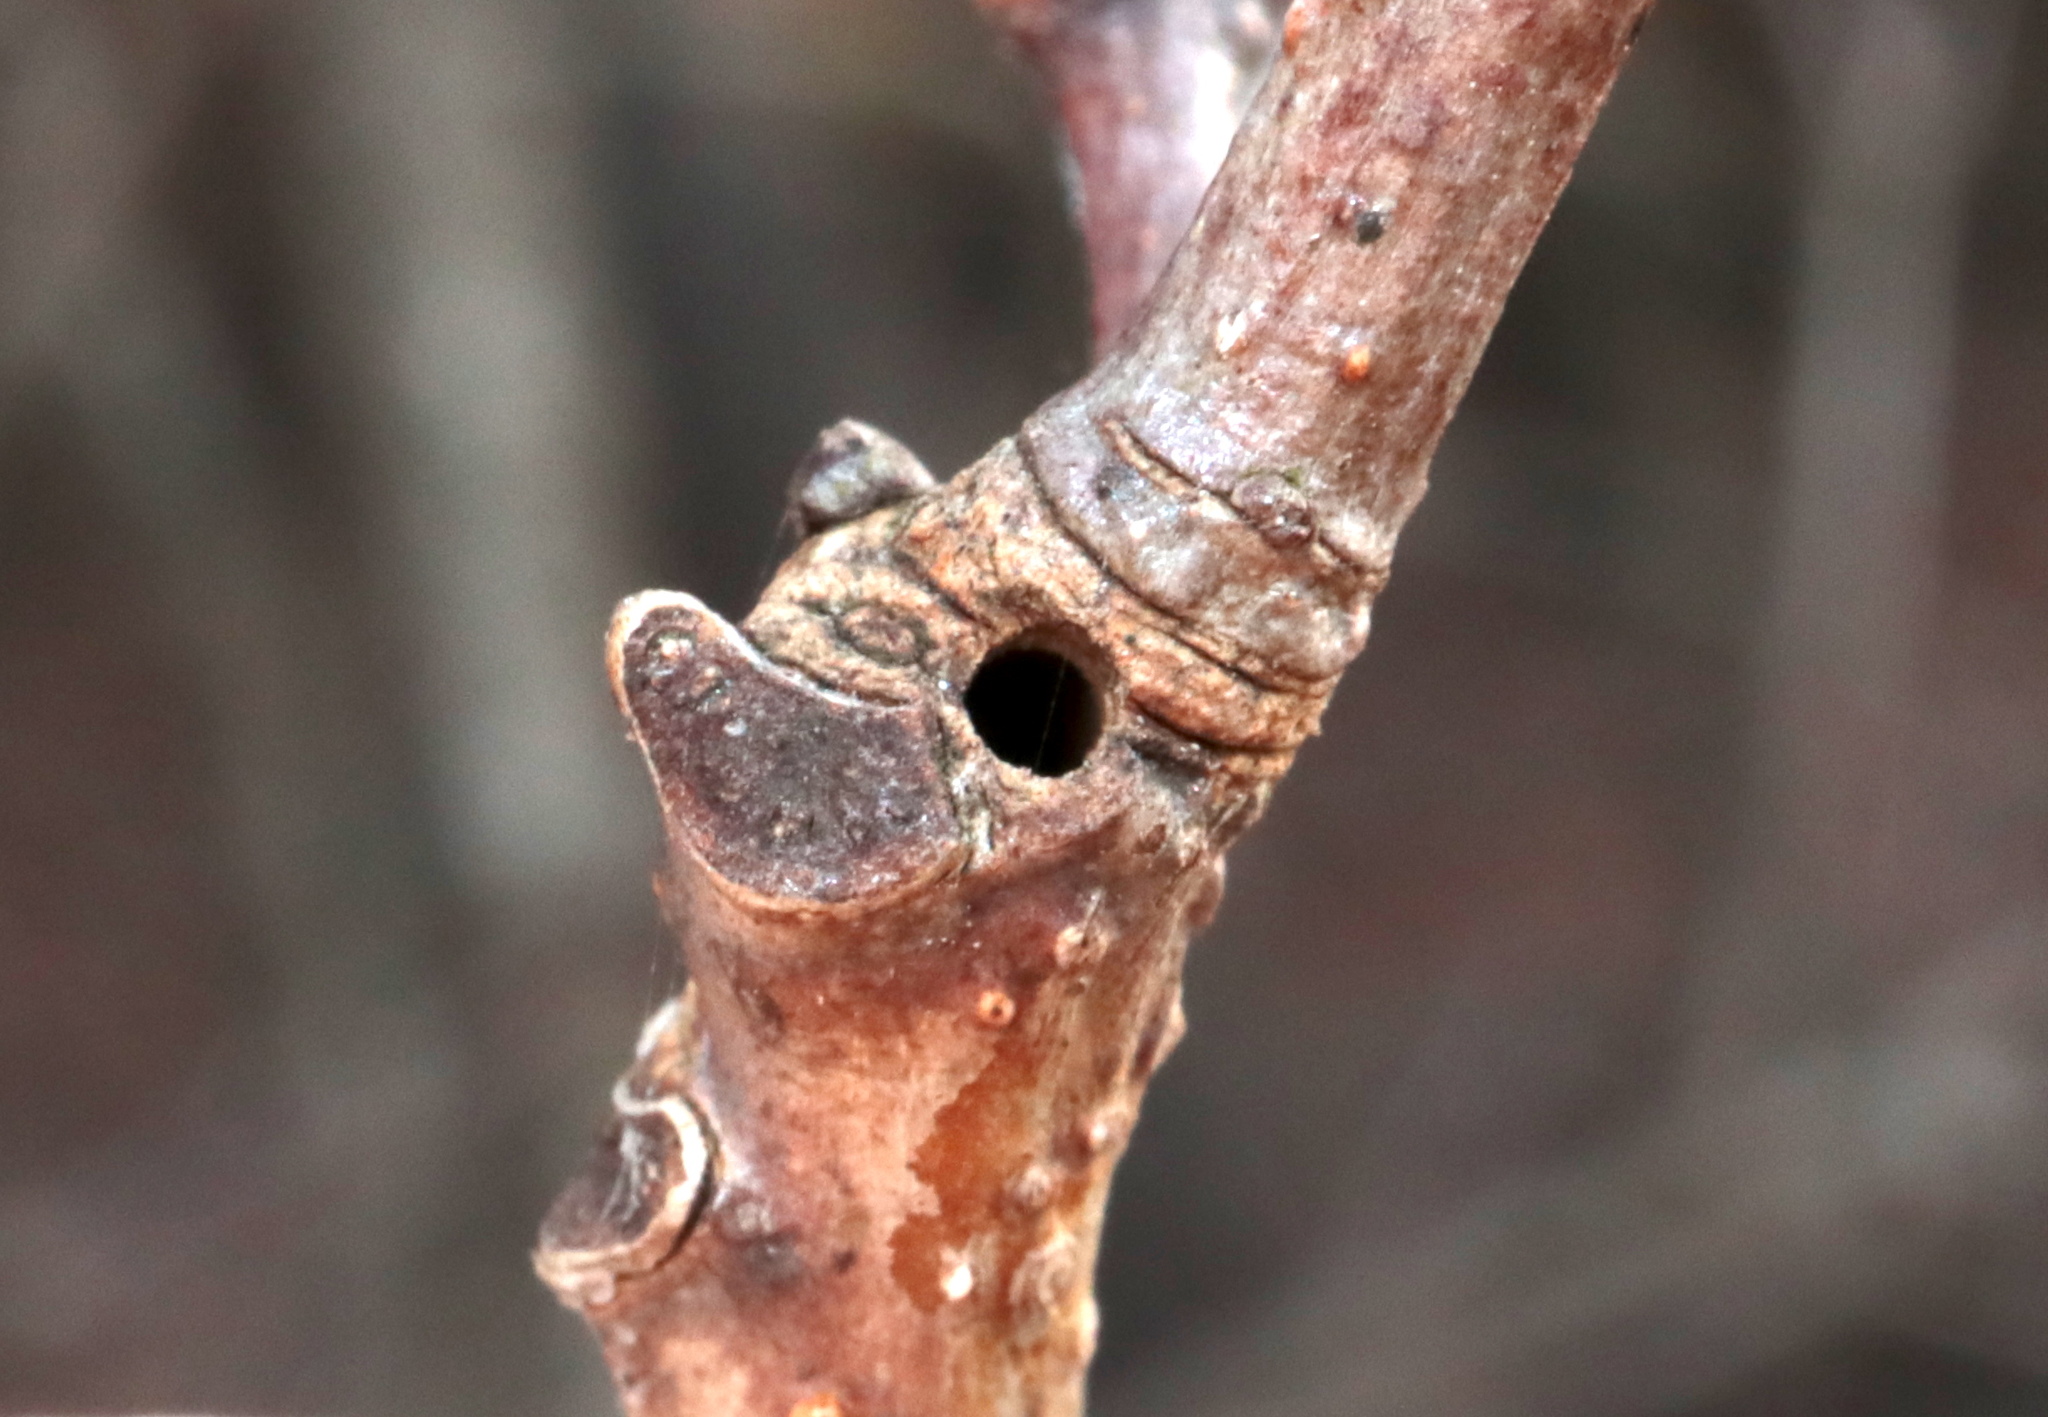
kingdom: Animalia
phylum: Arthropoda
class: Insecta
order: Hymenoptera
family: Cynipidae
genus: Neuroterus
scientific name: Neuroterus
